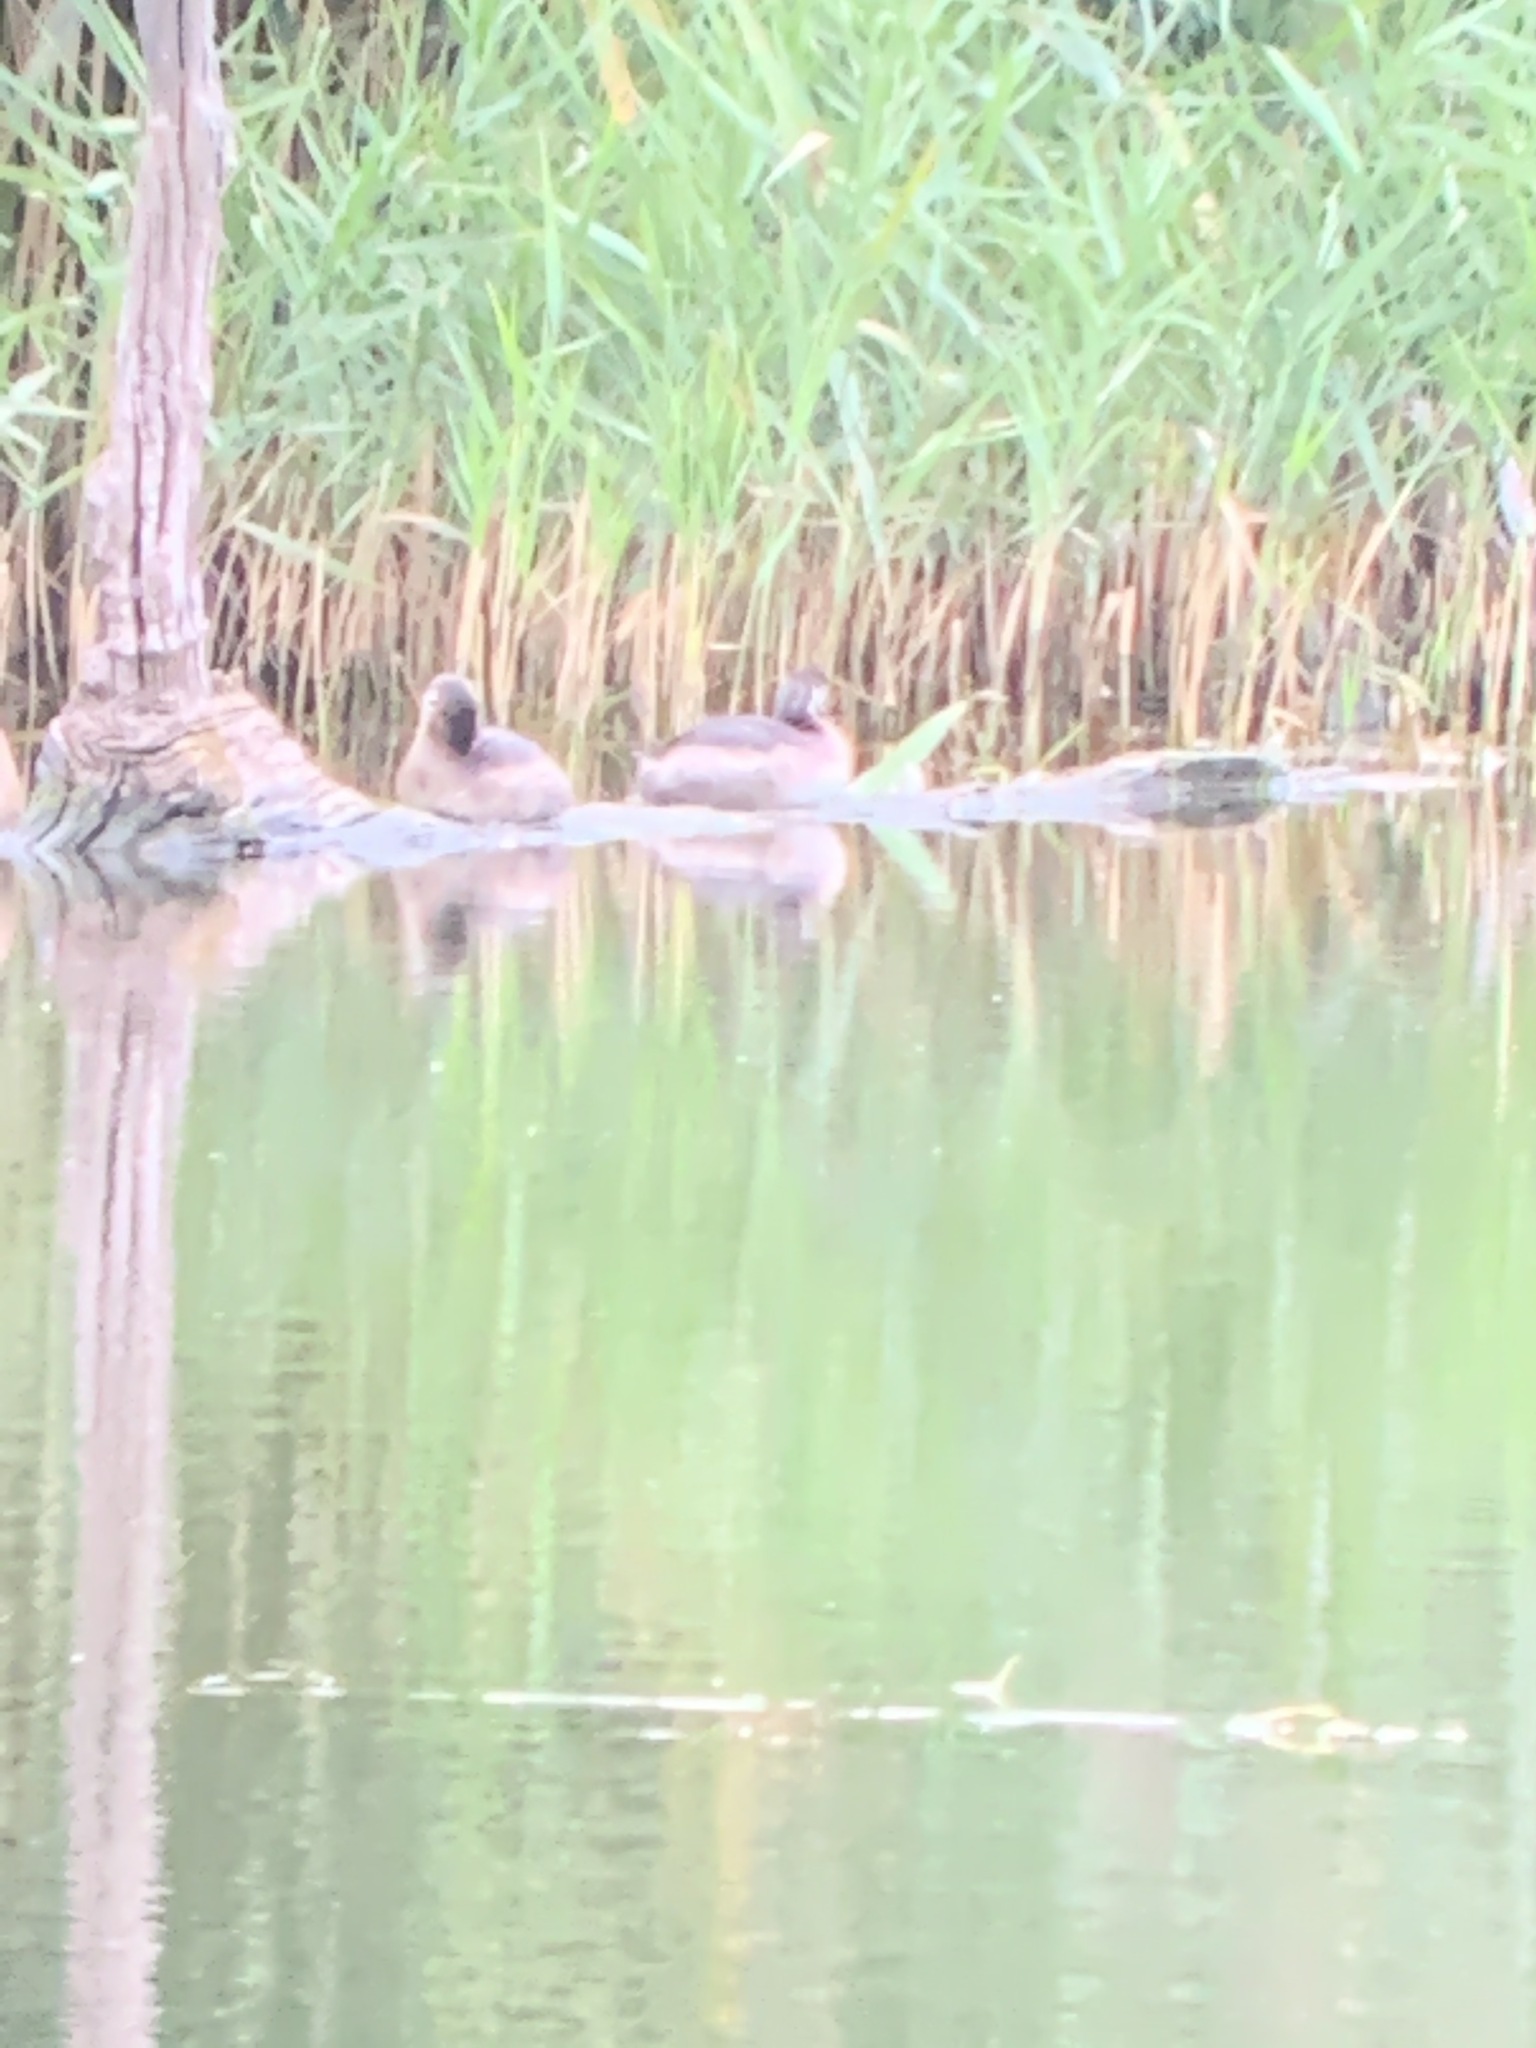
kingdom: Animalia
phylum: Chordata
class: Aves
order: Podicipediformes
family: Podicipedidae
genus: Podilymbus
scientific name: Podilymbus podiceps
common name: Pied-billed grebe
